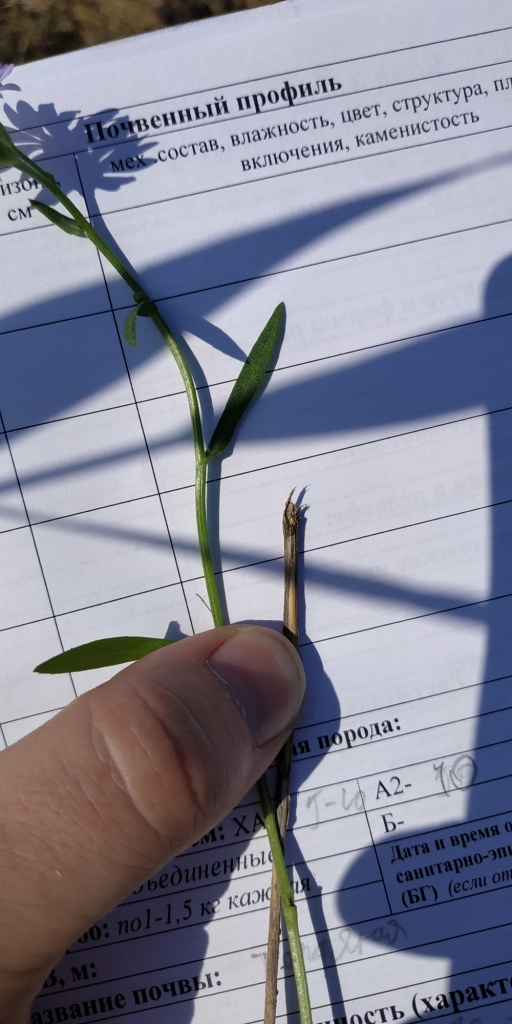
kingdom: Plantae
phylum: Tracheophyta
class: Magnoliopsida
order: Asterales
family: Asteraceae
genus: Tripolium
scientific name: Tripolium pannonicum
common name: Sea aster
